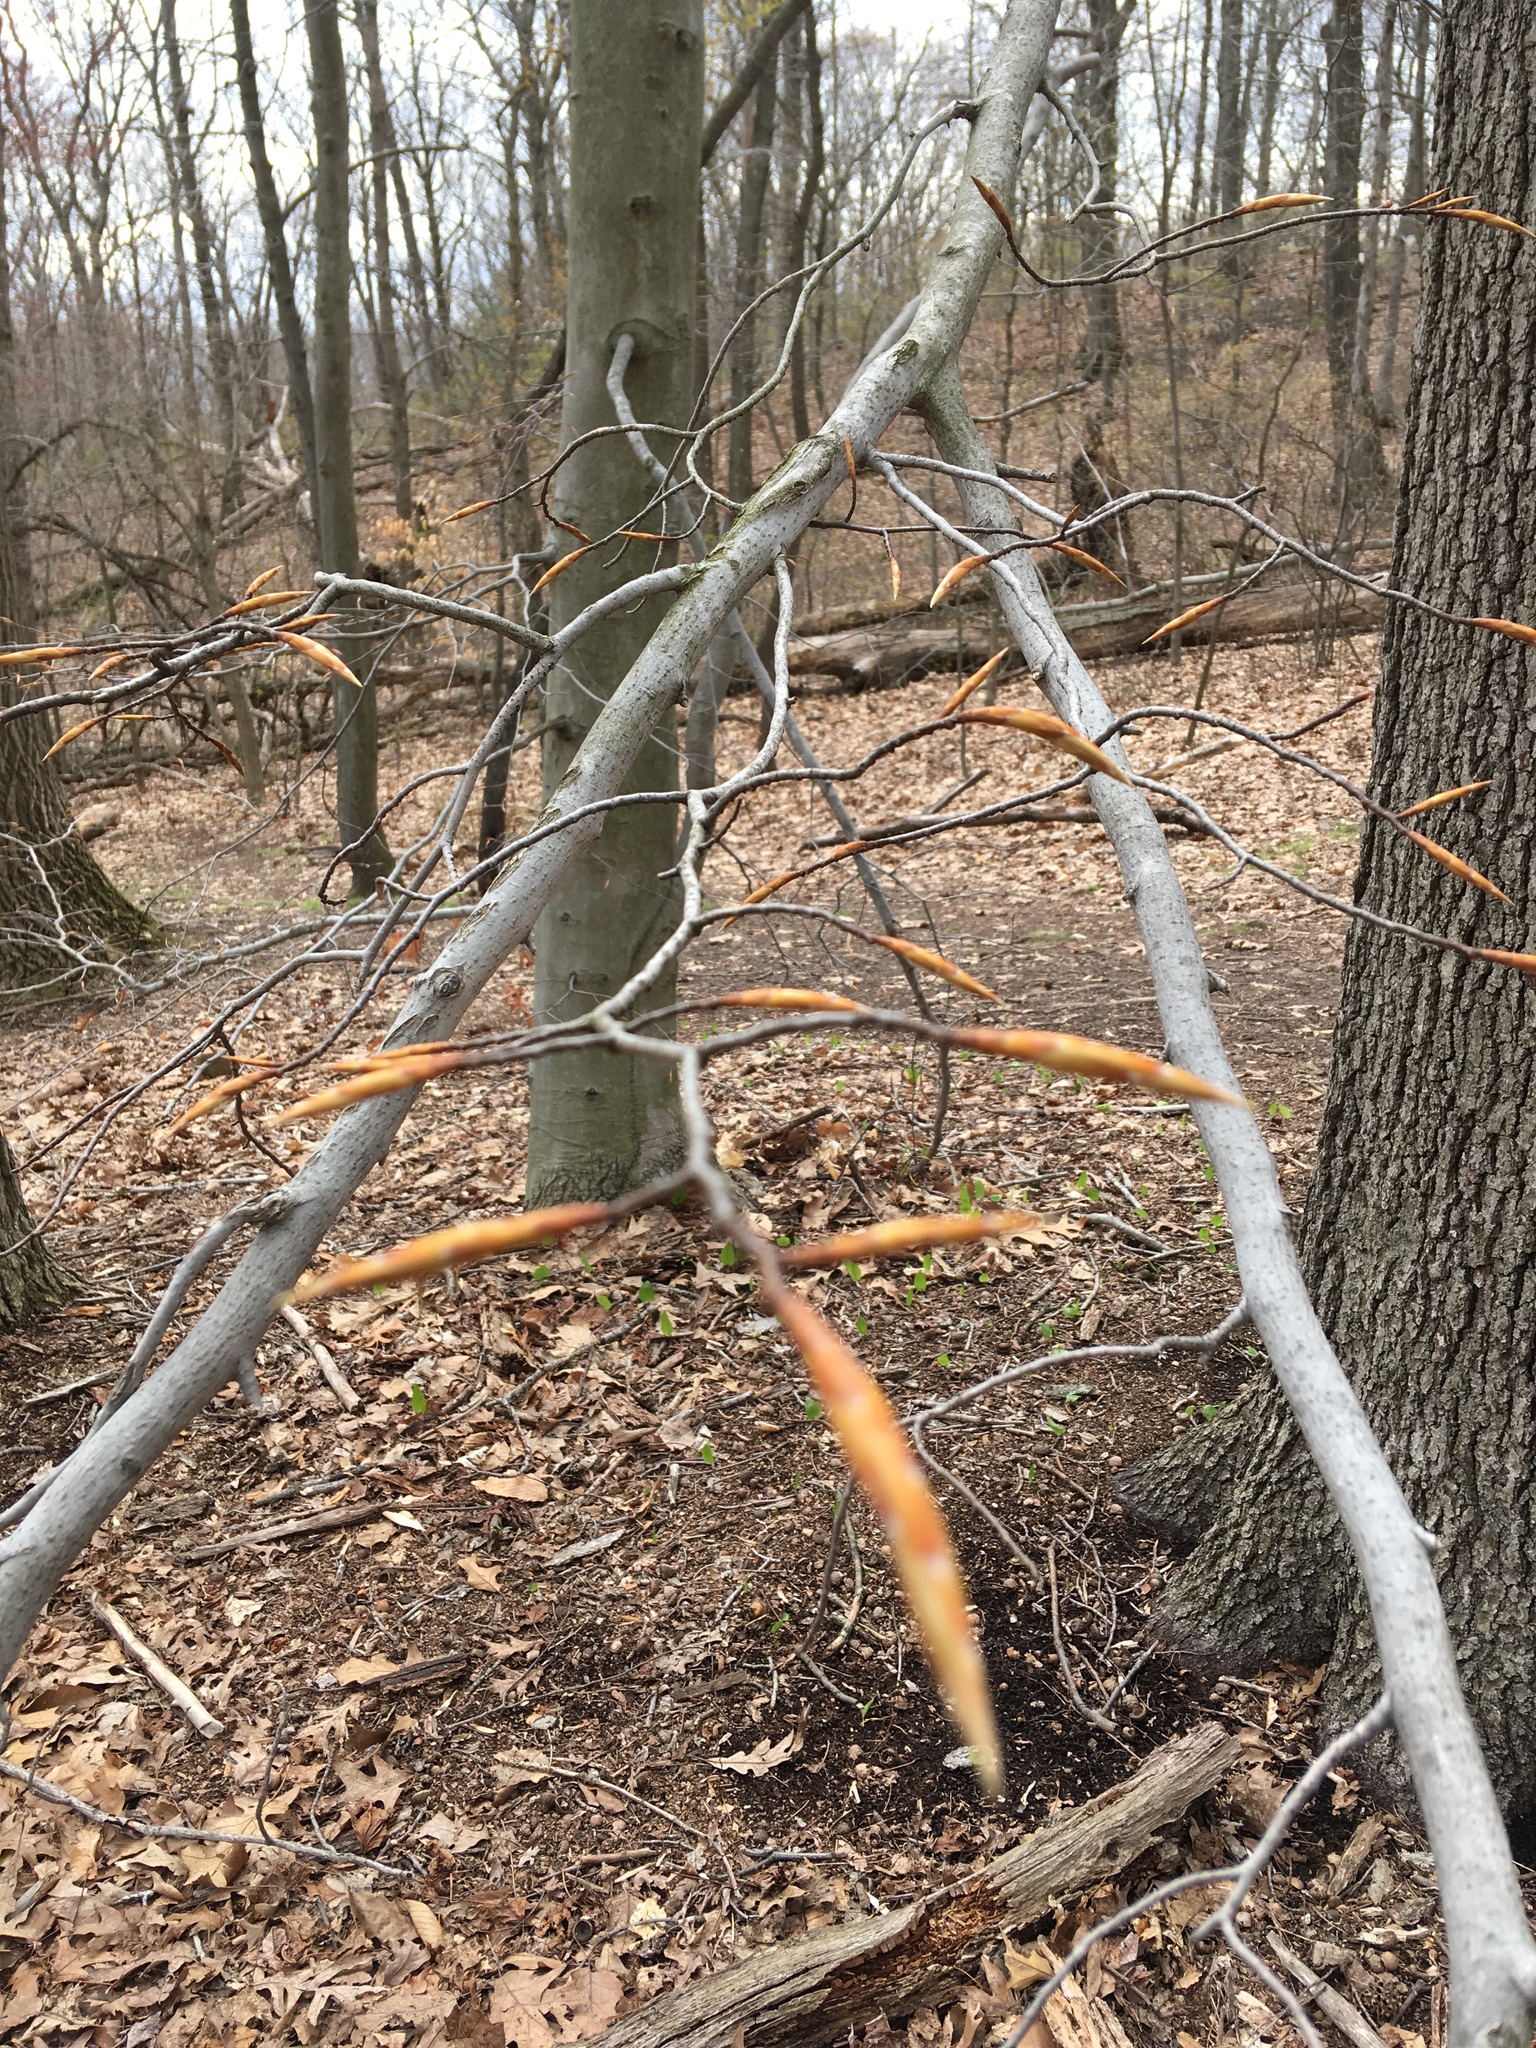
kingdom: Plantae
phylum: Tracheophyta
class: Magnoliopsida
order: Fagales
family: Fagaceae
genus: Fagus
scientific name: Fagus grandifolia
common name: American beech
